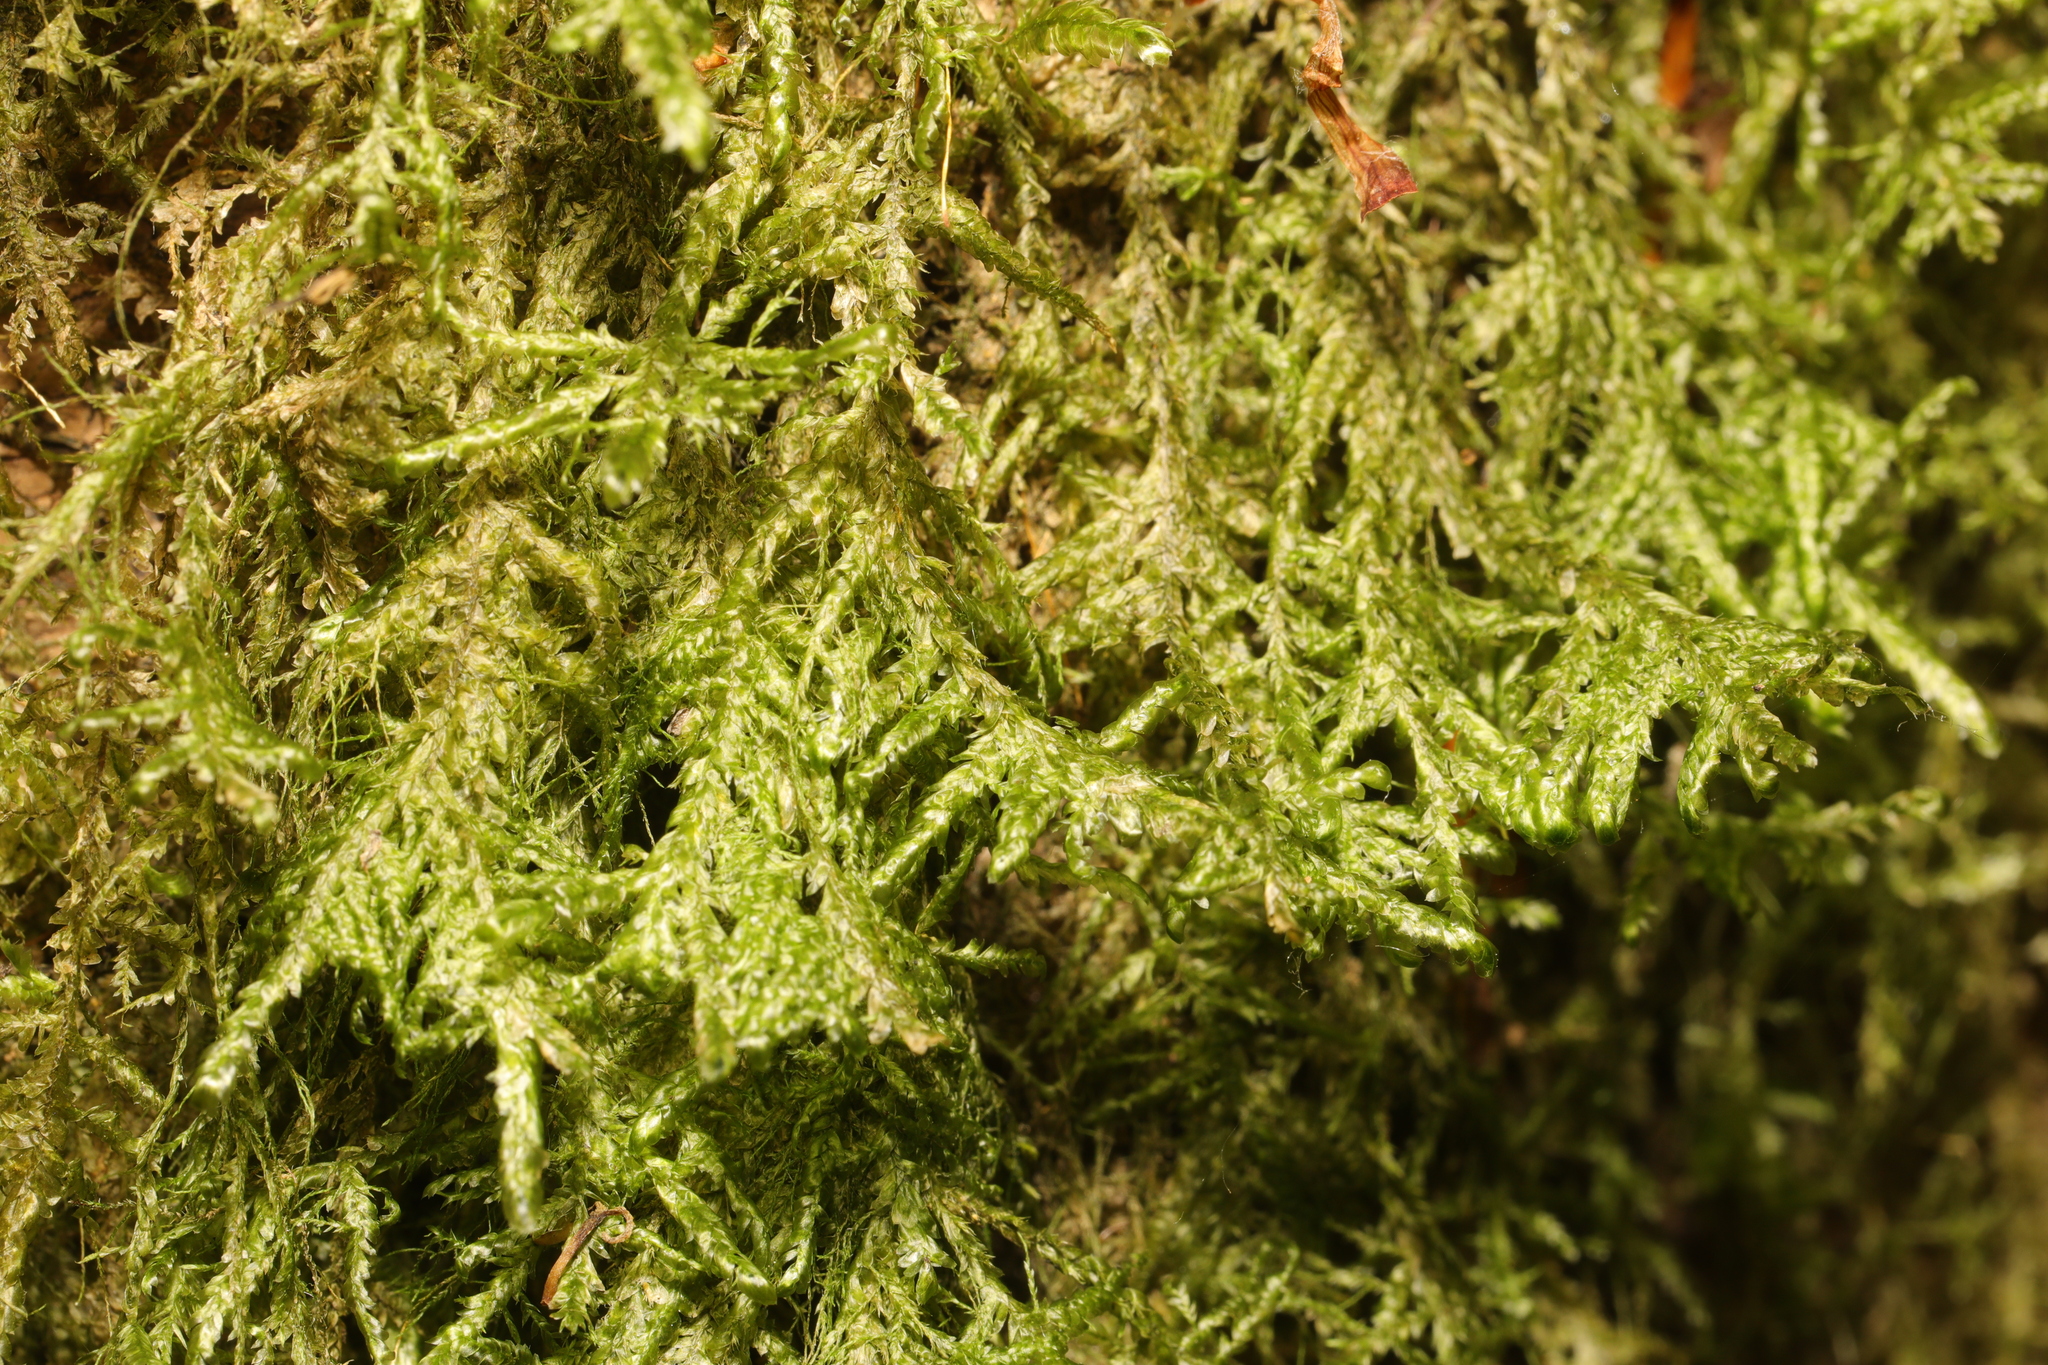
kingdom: Plantae
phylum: Bryophyta
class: Bryopsida
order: Hypnales
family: Neckeraceae
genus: Alleniella
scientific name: Alleniella complanata
